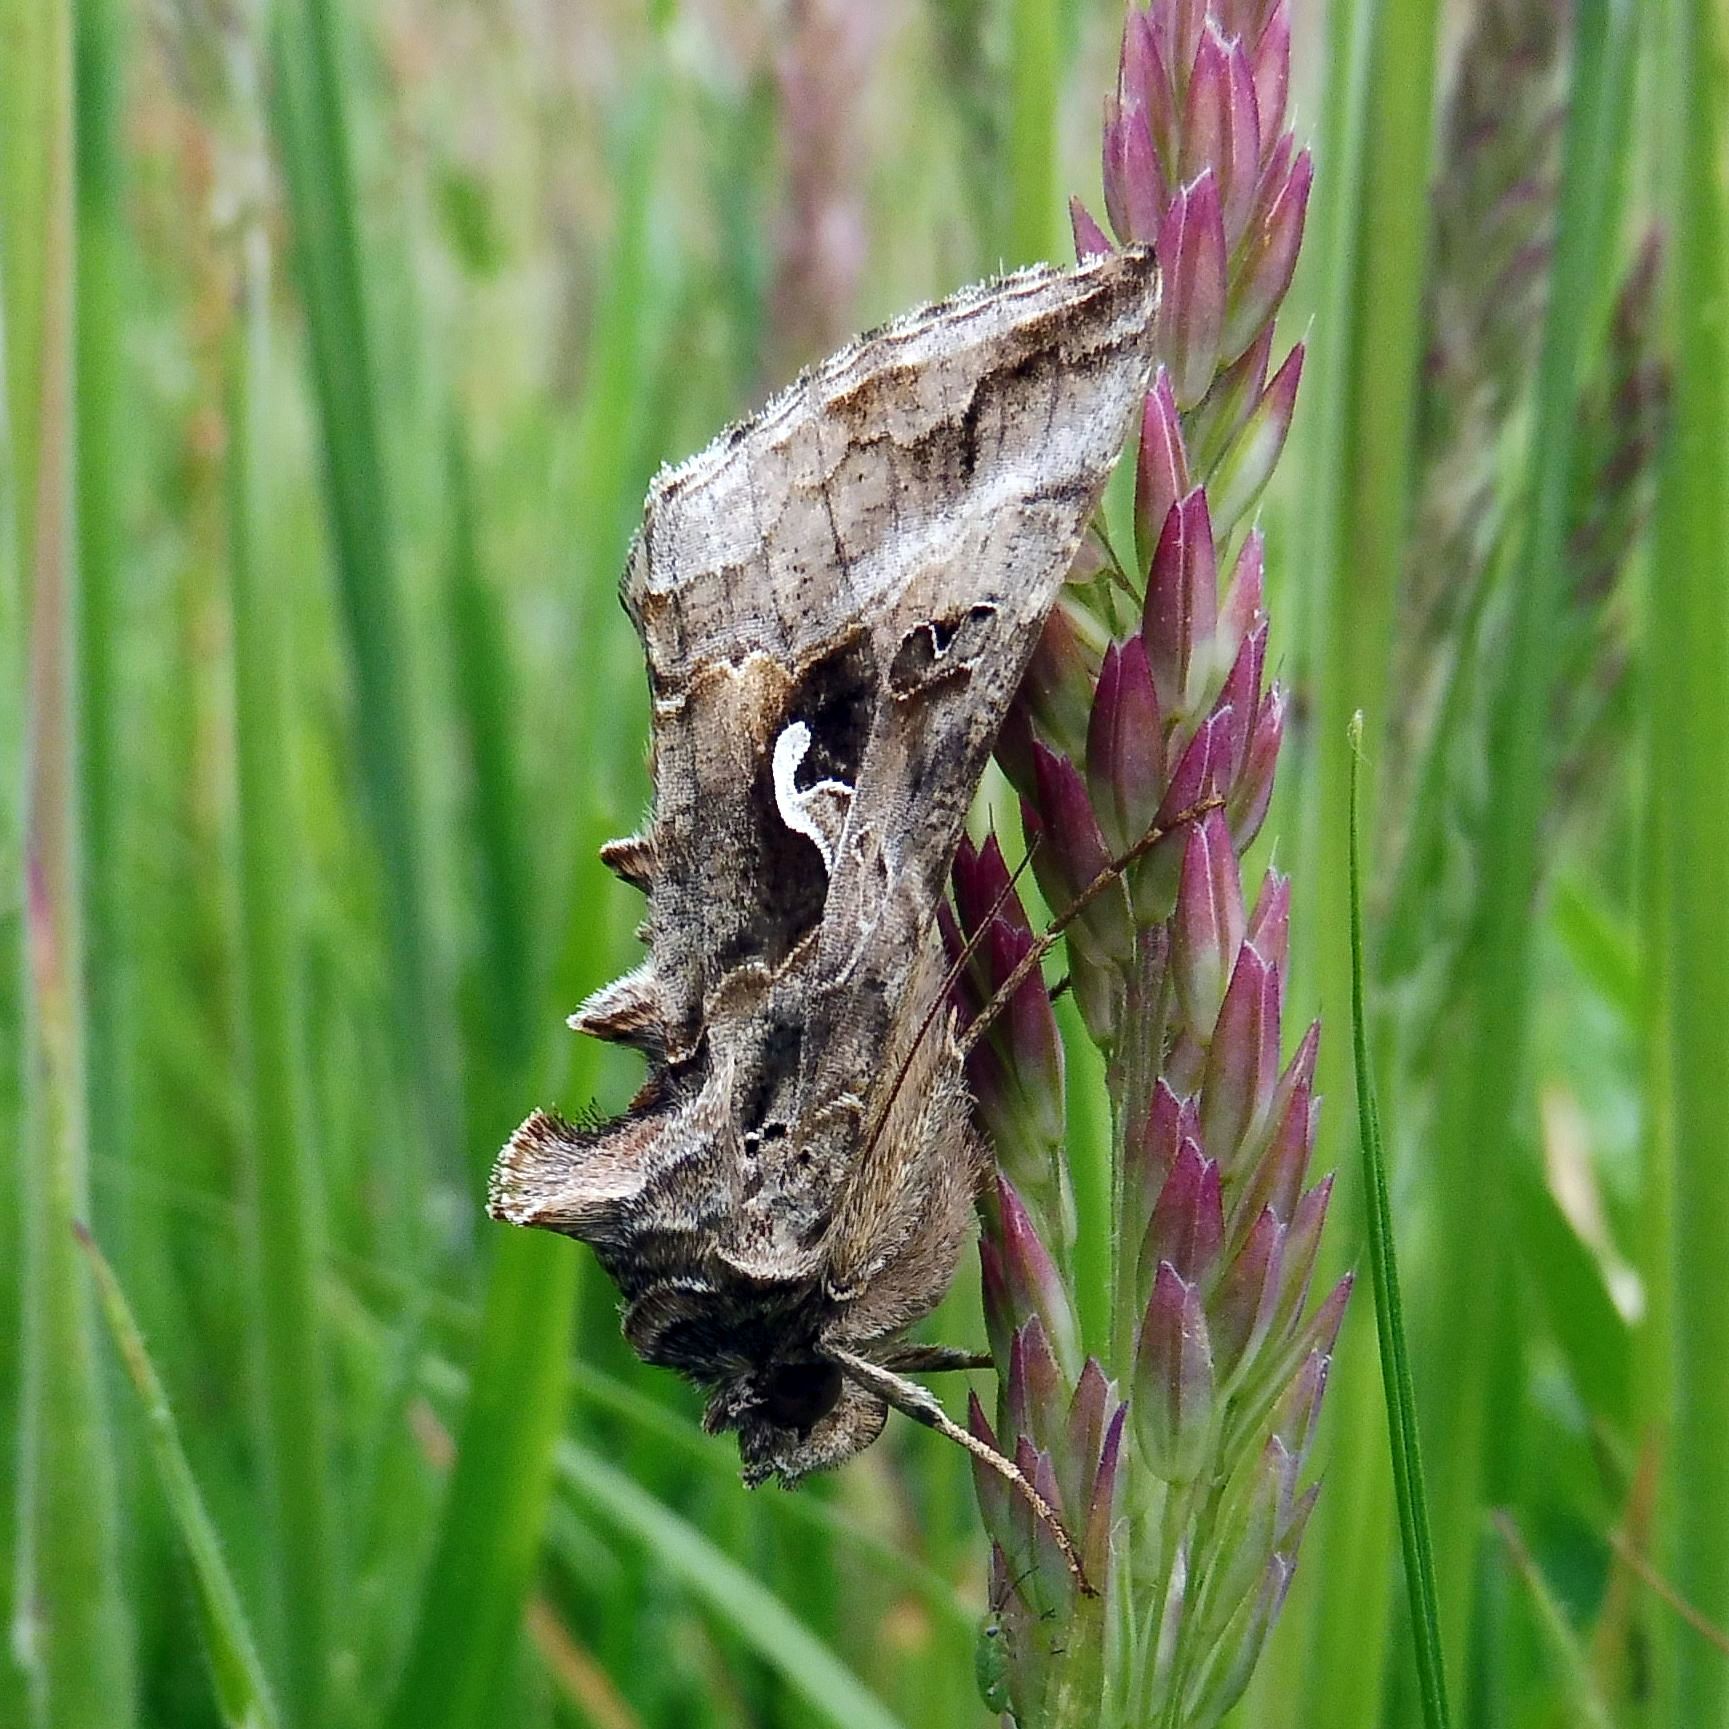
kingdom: Animalia
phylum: Arthropoda
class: Insecta
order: Lepidoptera
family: Noctuidae
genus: Autographa
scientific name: Autographa gamma
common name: Silver y
